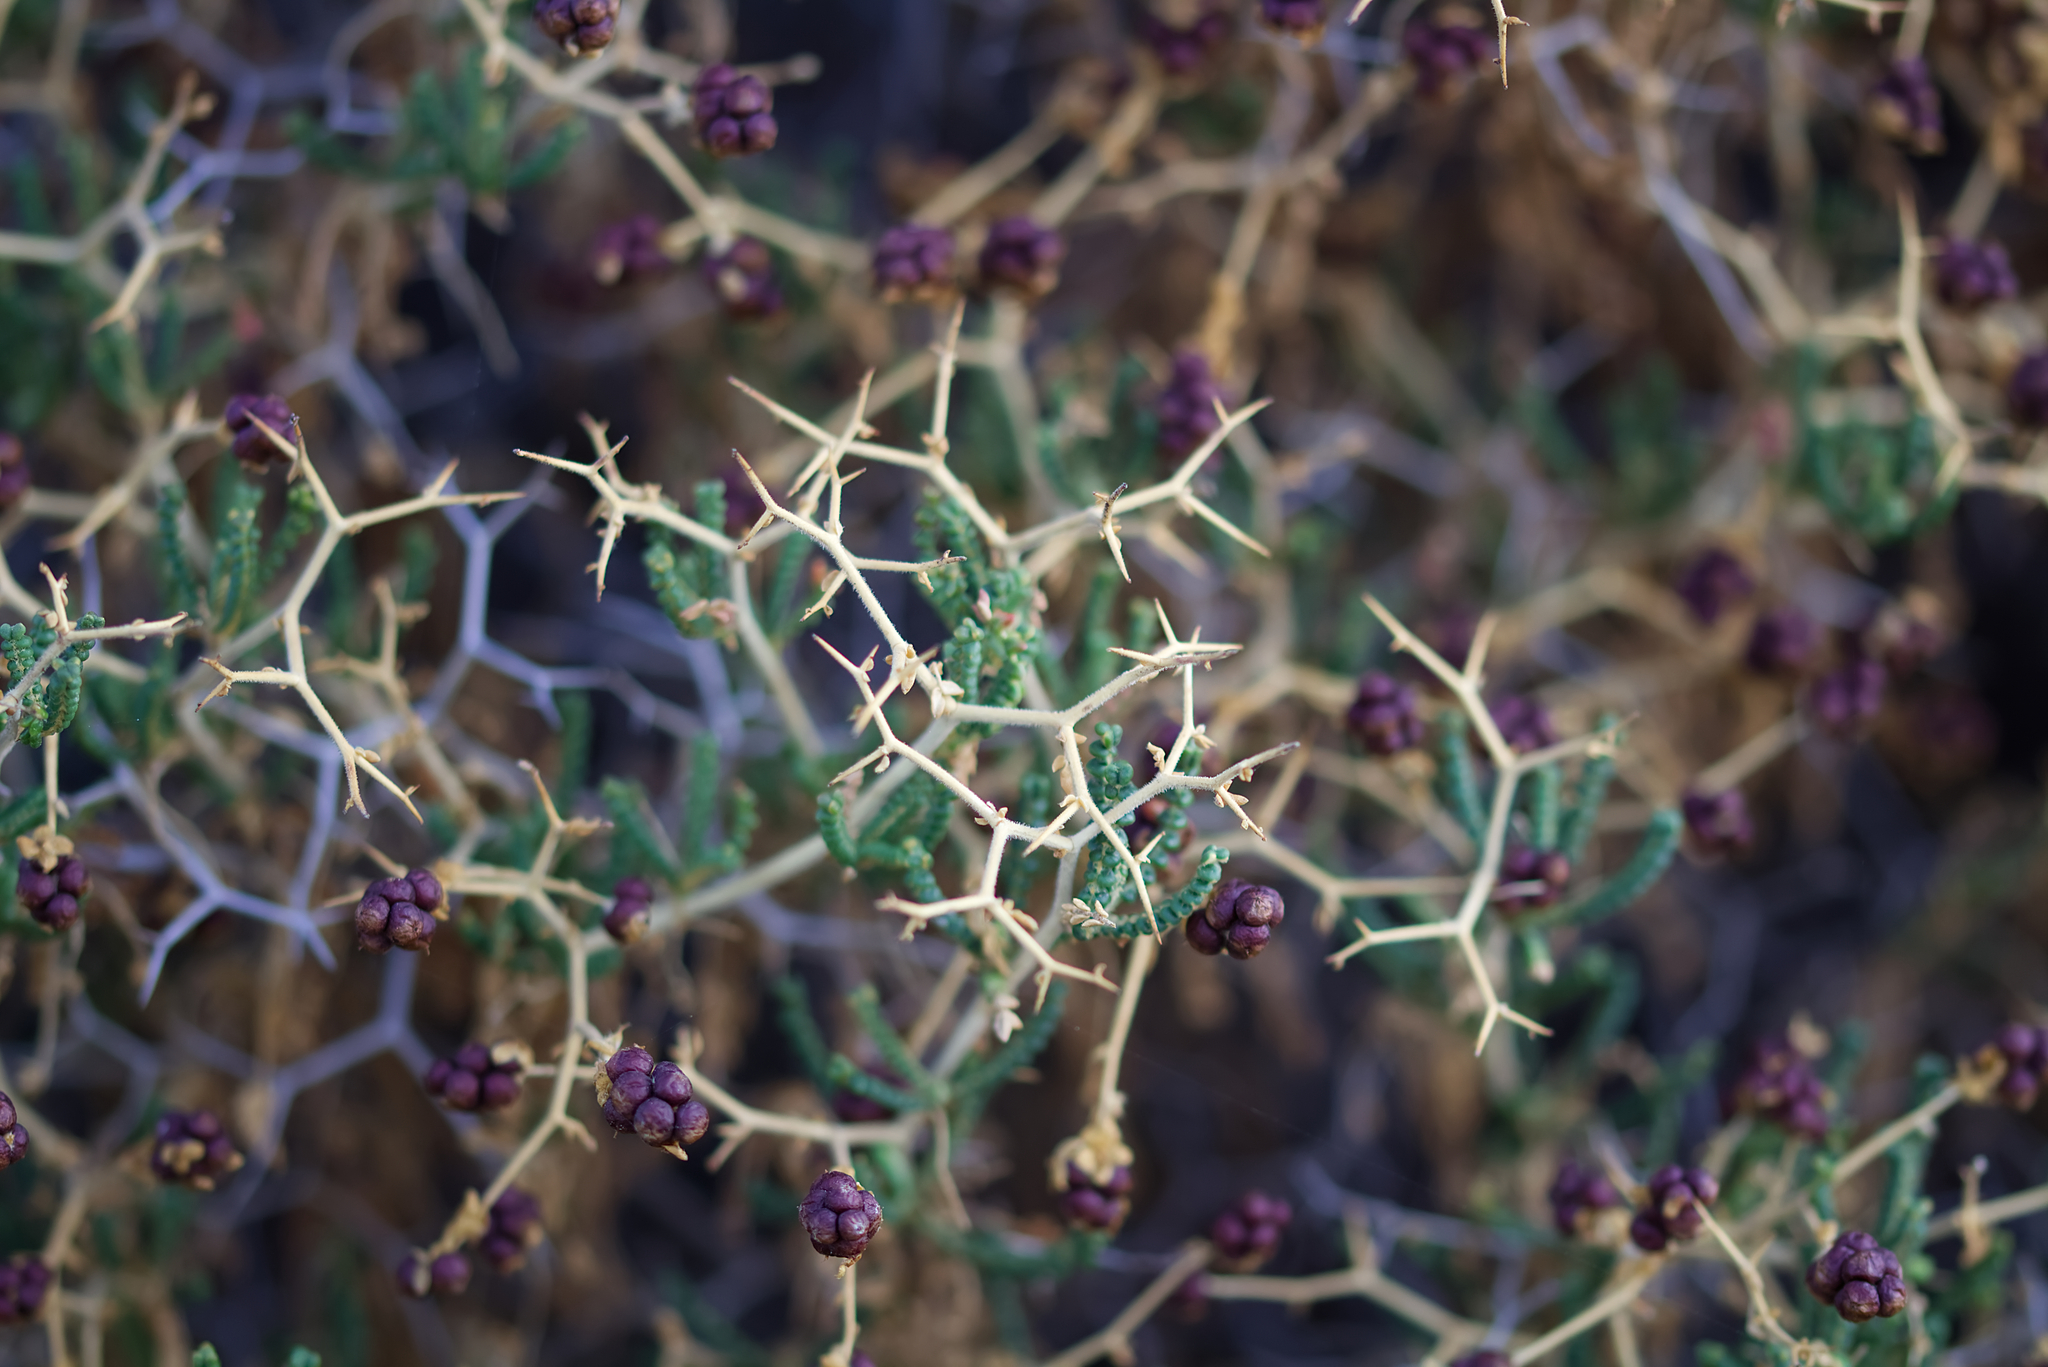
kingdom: Plantae
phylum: Tracheophyta
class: Magnoliopsida
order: Rosales
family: Rosaceae
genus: Sarcopoterium
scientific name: Sarcopoterium spinosum
